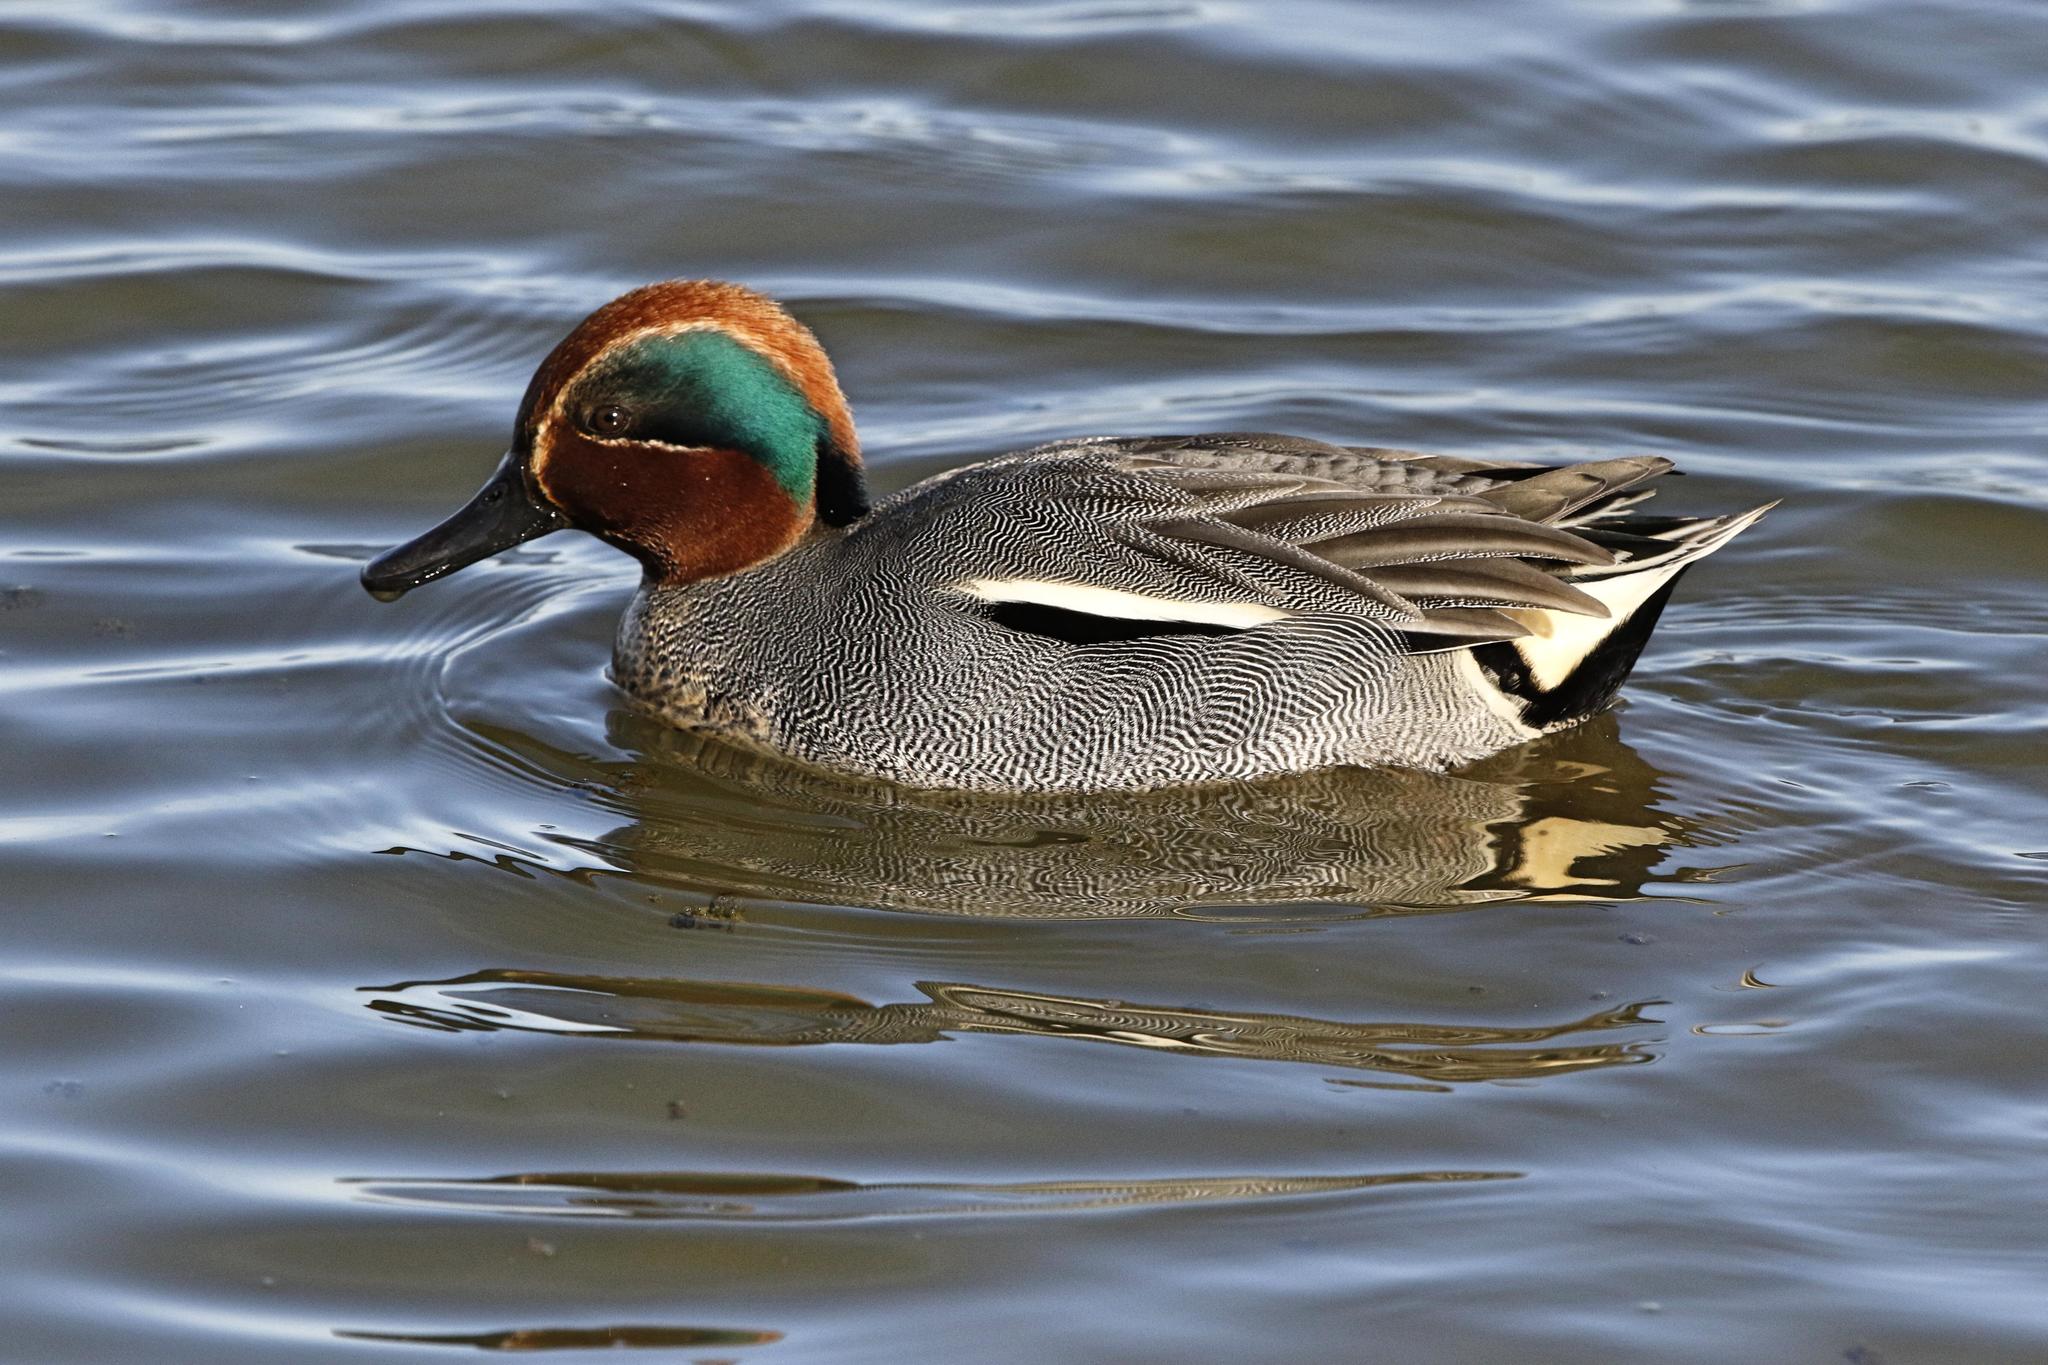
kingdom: Animalia
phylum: Chordata
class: Aves
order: Anseriformes
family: Anatidae
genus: Anas
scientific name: Anas crecca
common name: Eurasian teal
